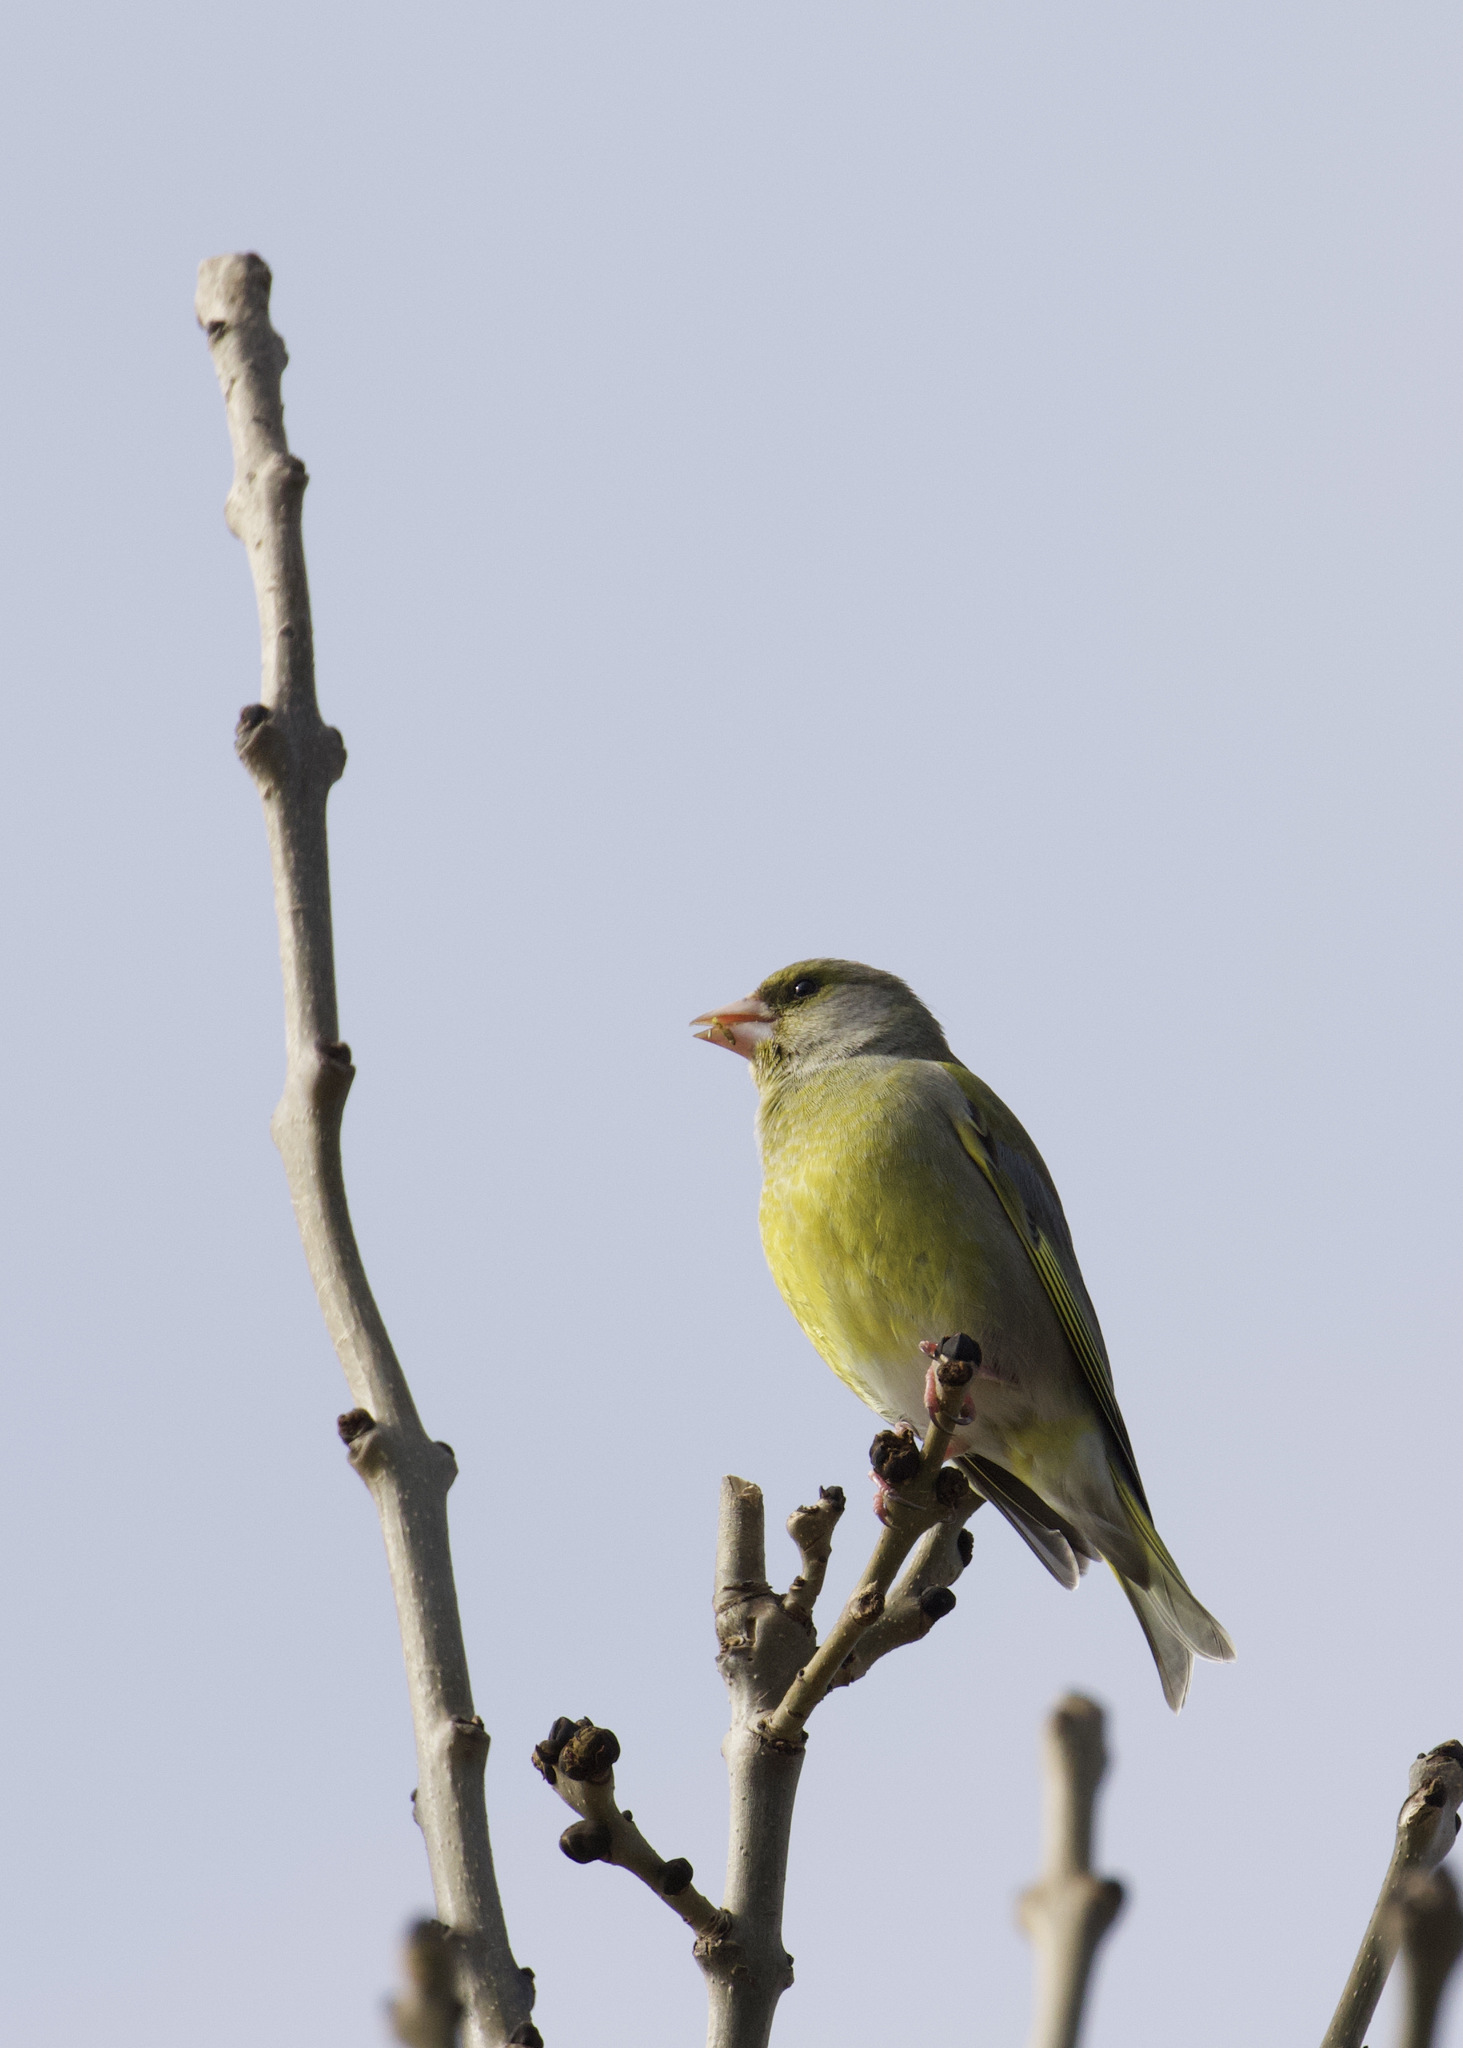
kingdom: Plantae
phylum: Tracheophyta
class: Liliopsida
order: Poales
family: Poaceae
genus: Chloris
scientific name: Chloris chloris
